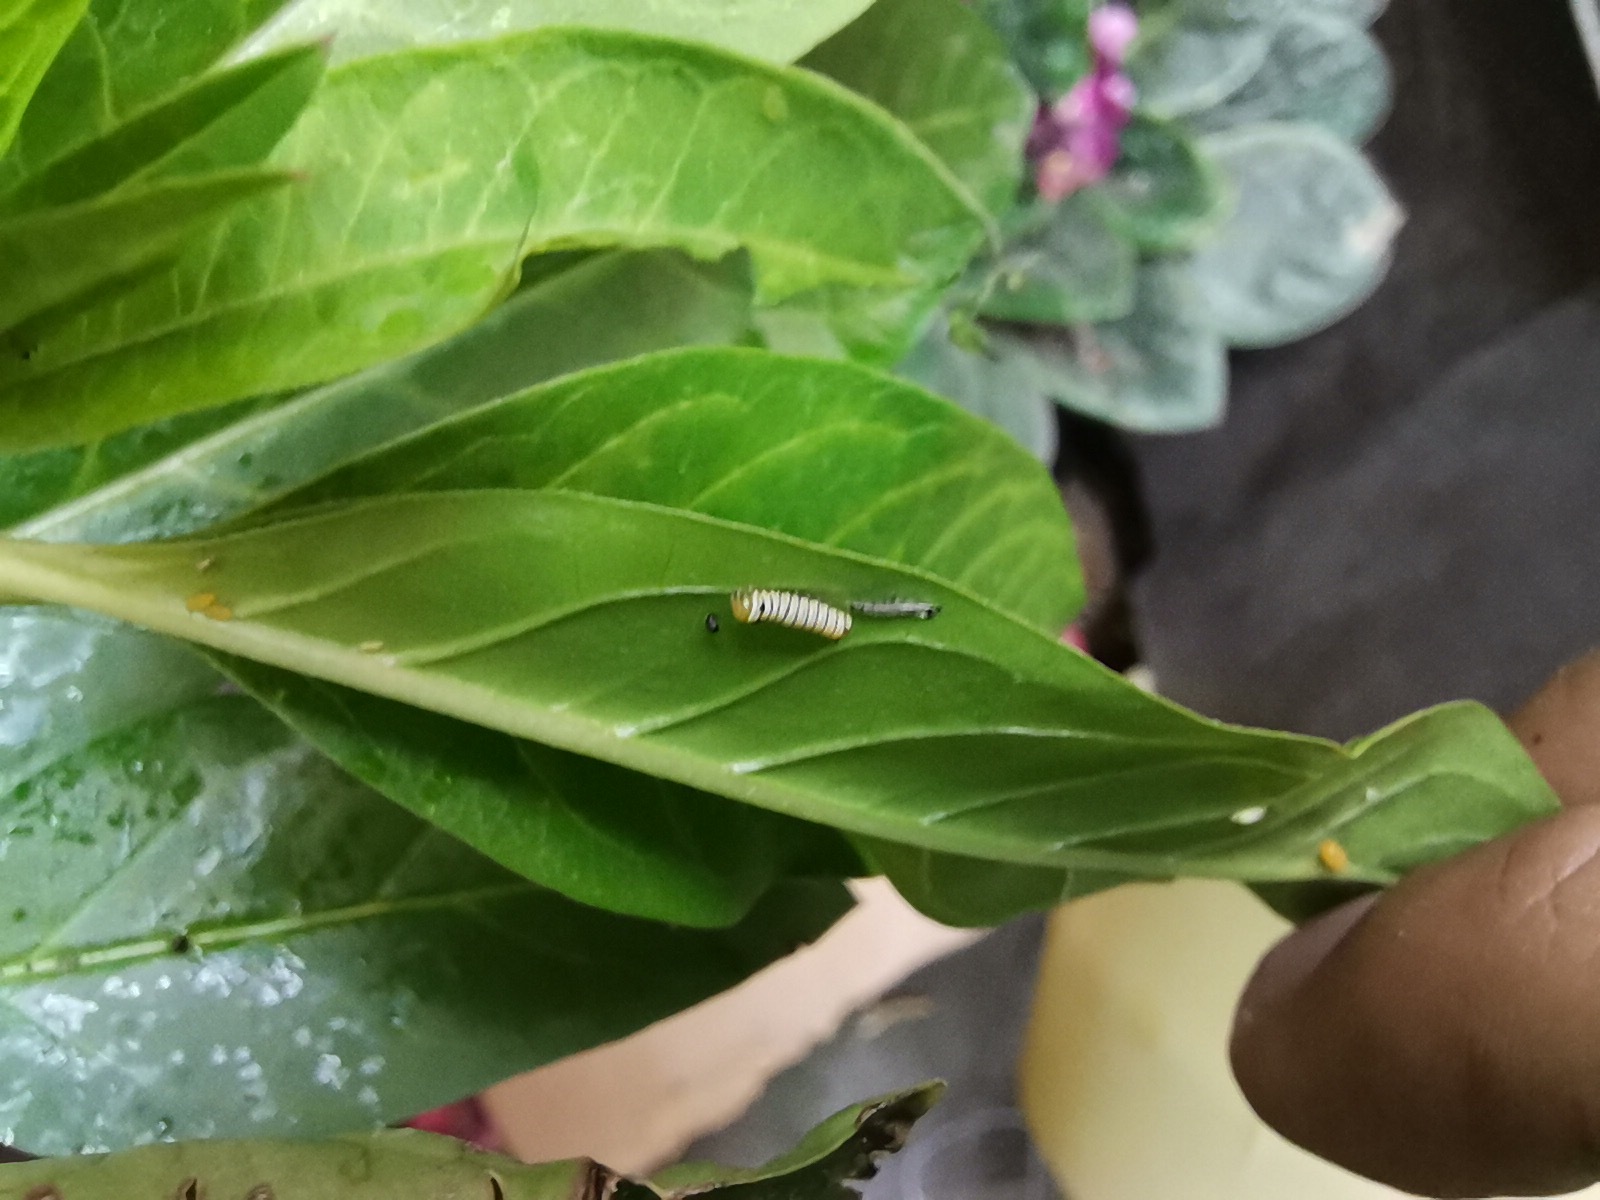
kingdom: Animalia
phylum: Arthropoda
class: Insecta
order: Lepidoptera
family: Nymphalidae
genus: Danaus
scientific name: Danaus plexippus
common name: Monarch
